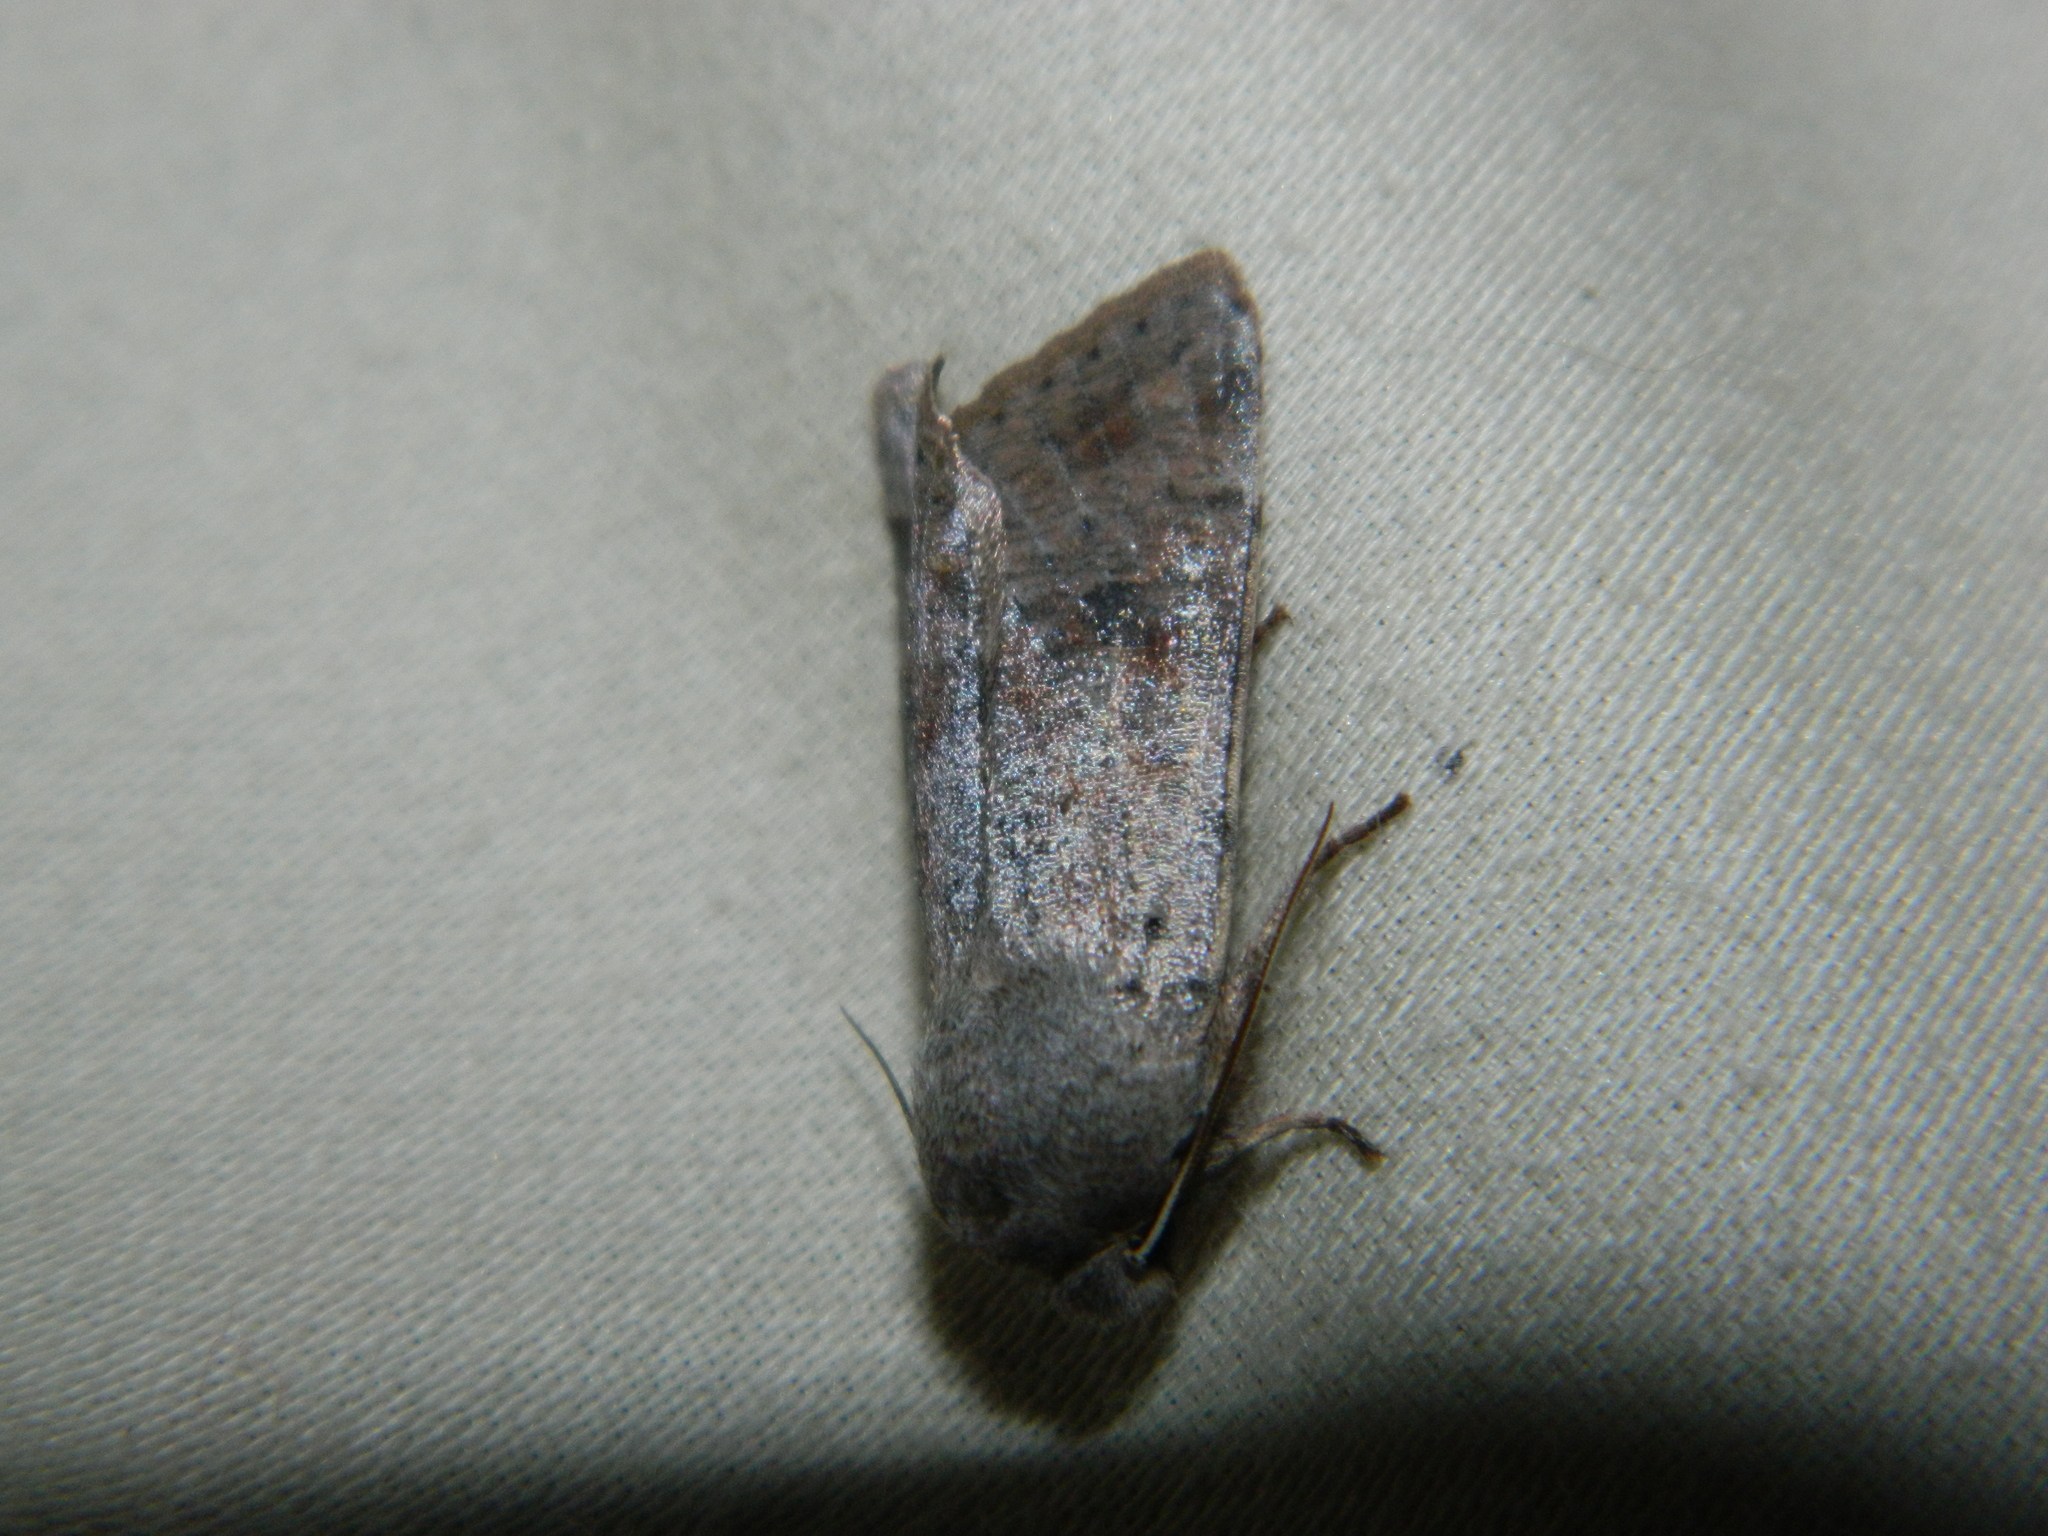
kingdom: Animalia
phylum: Arthropoda
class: Insecta
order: Lepidoptera
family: Noctuidae
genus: Orthosia
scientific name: Orthosia hibisci
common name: Green fruitworm
